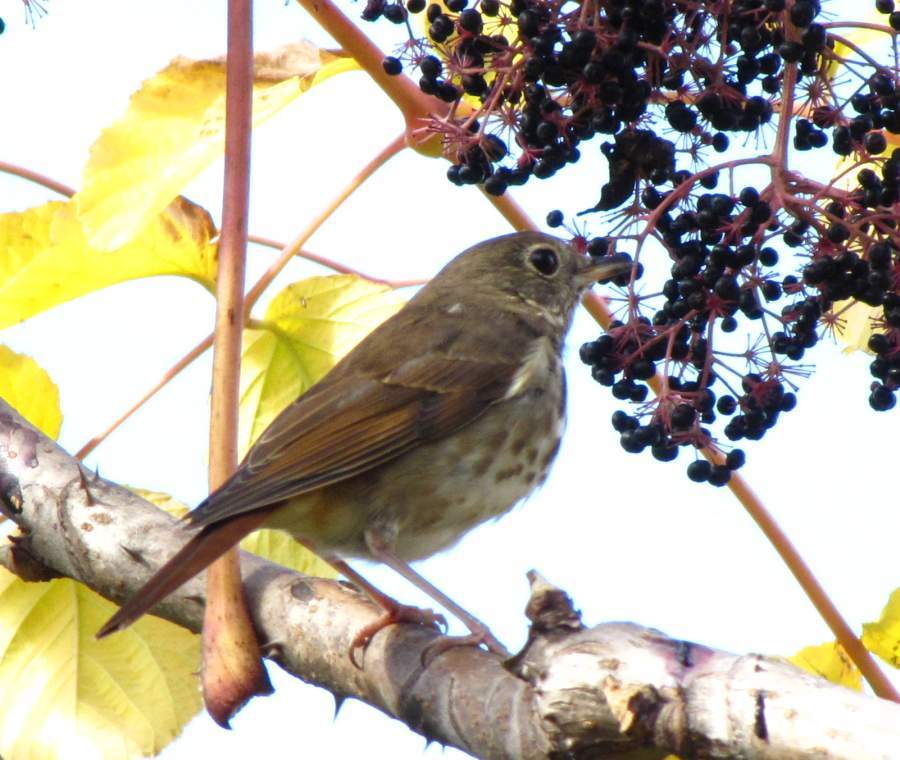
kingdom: Animalia
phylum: Chordata
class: Aves
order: Passeriformes
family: Turdidae
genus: Catharus
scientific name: Catharus guttatus
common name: Hermit thrush
